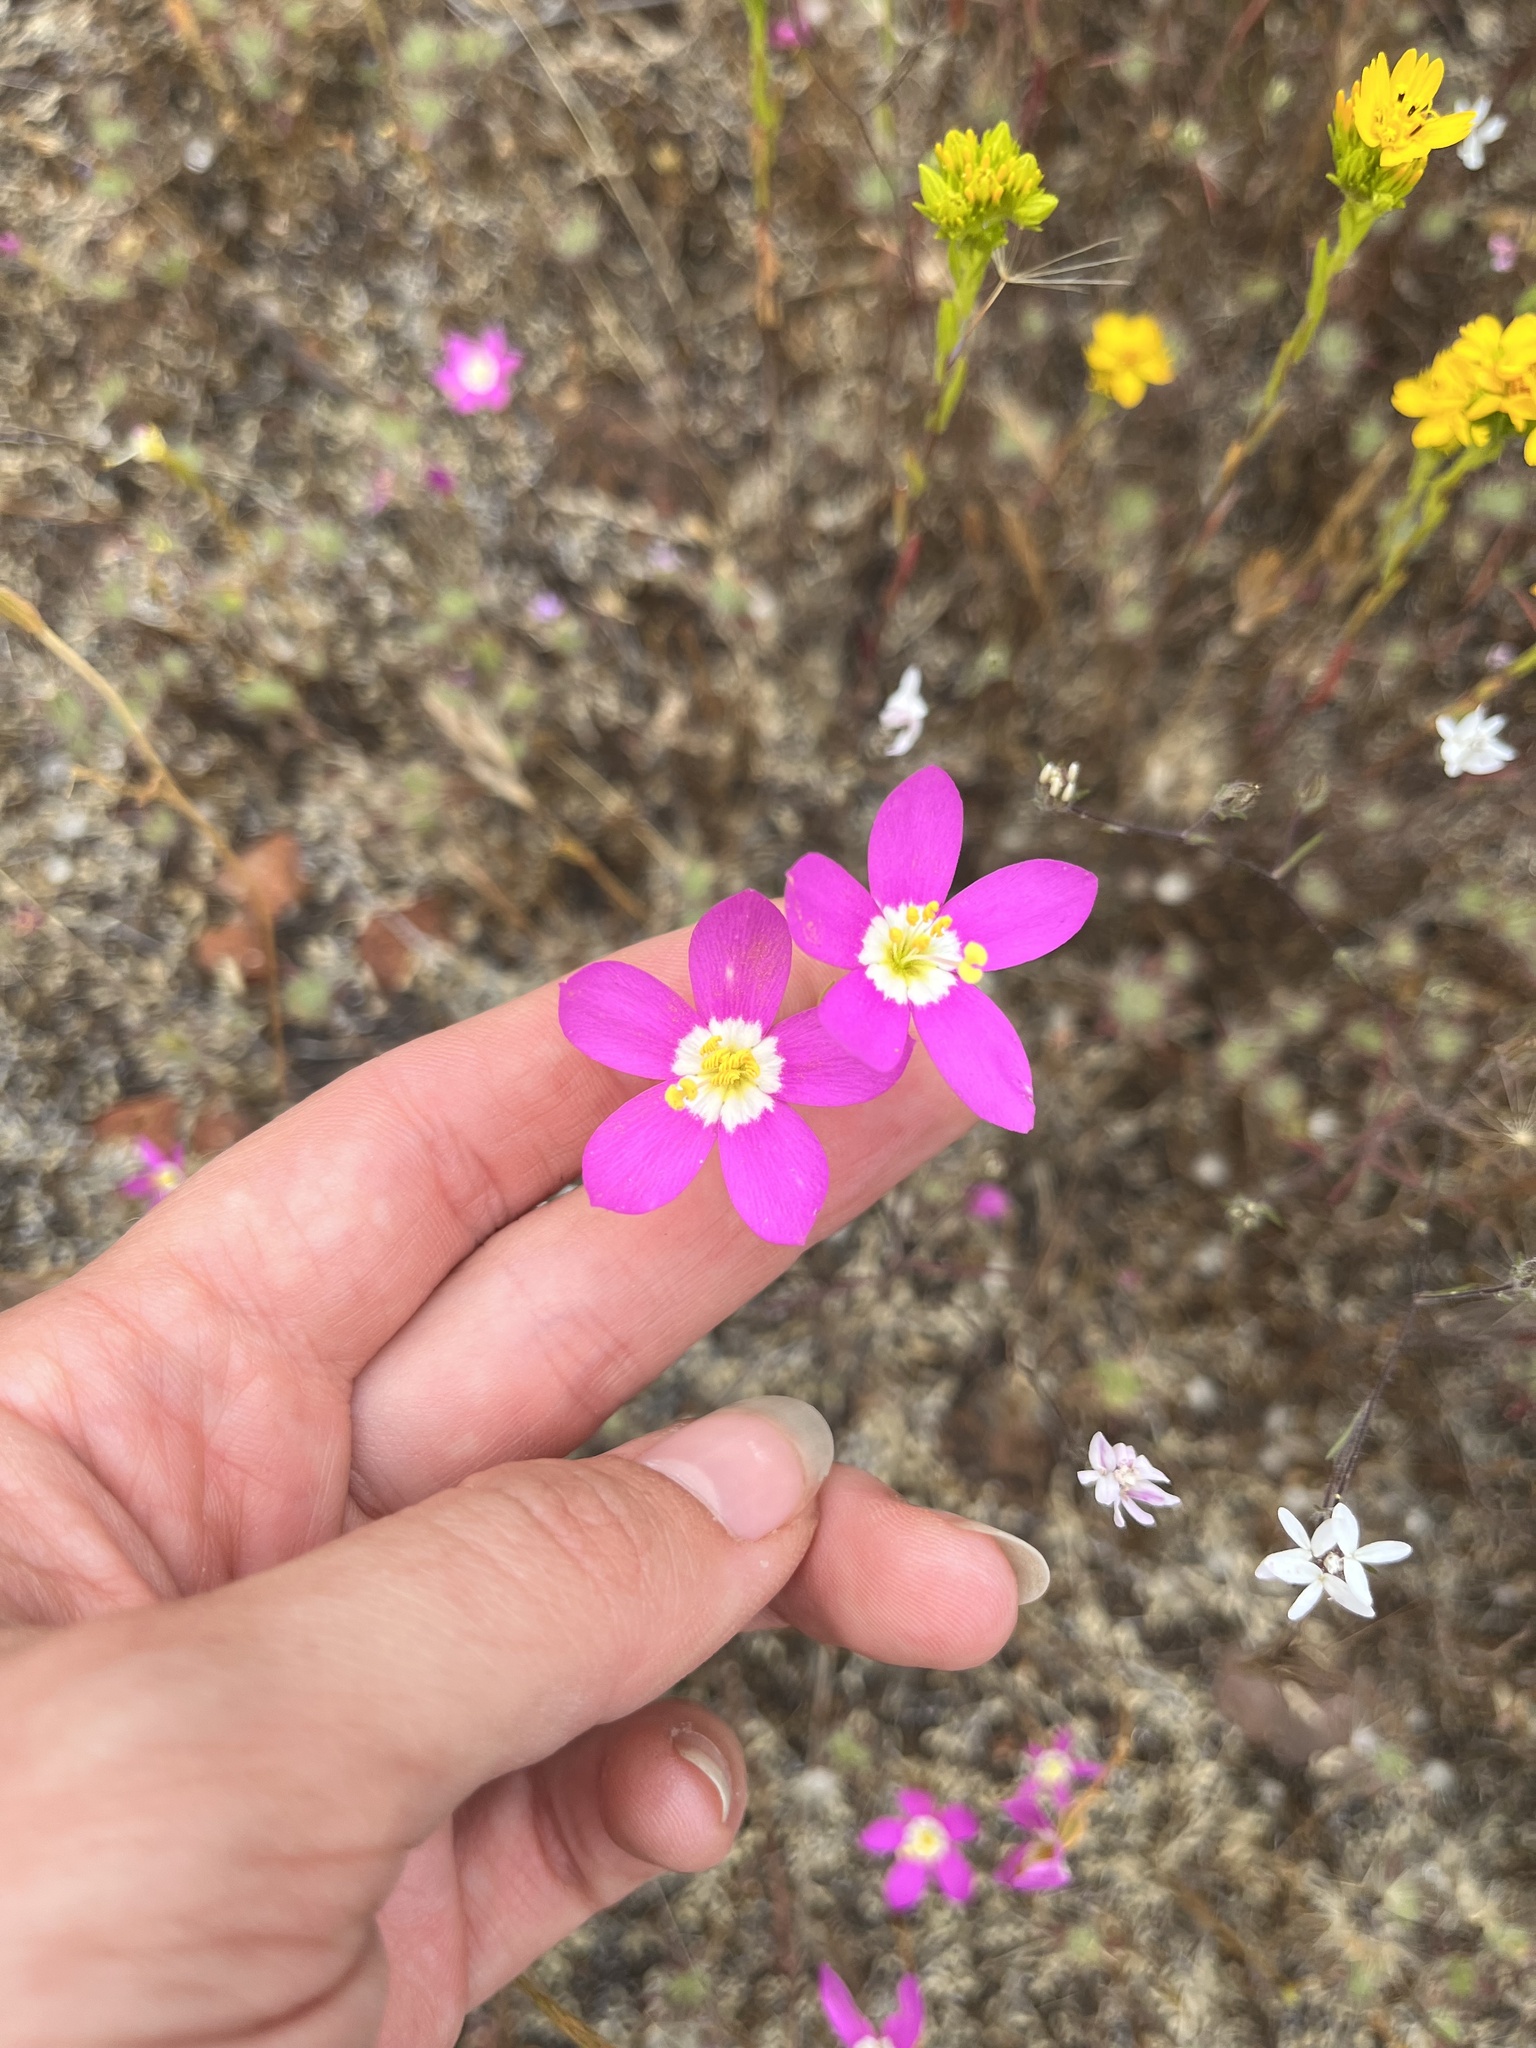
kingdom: Plantae
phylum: Tracheophyta
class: Magnoliopsida
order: Gentianales
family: Gentianaceae
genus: Zeltnera
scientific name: Zeltnera venusta
